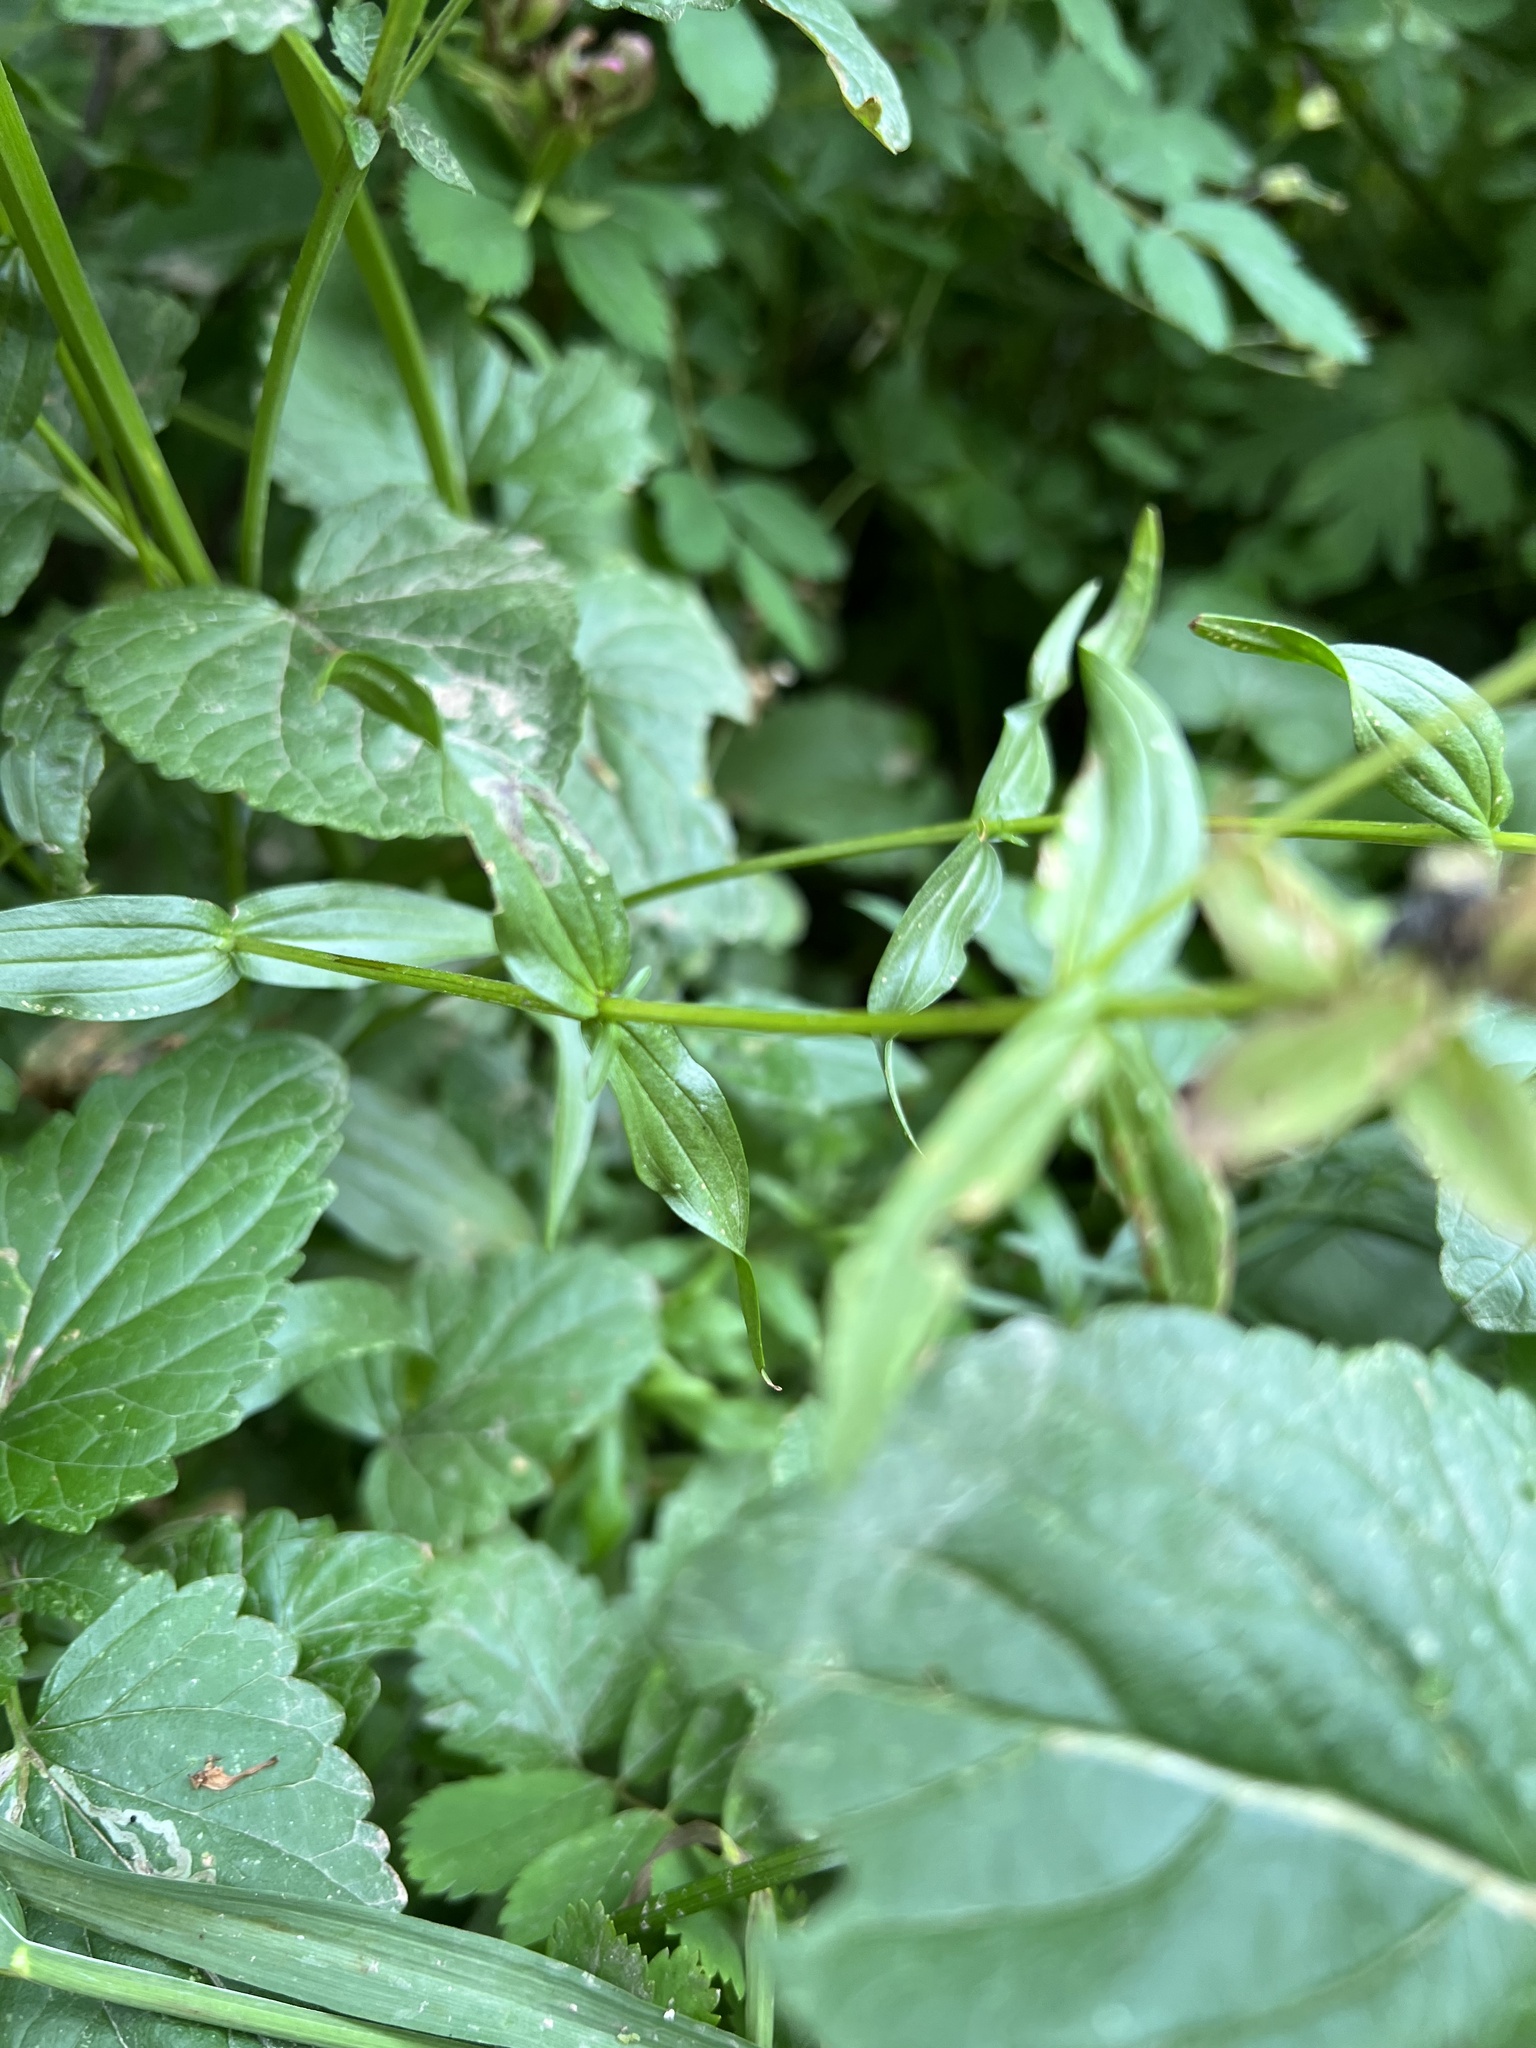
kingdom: Plantae
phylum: Tracheophyta
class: Magnoliopsida
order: Lamiales
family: Orobanchaceae
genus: Castilleja
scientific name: Castilleja rhexifolia
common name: Rocky mountain paintbrush
